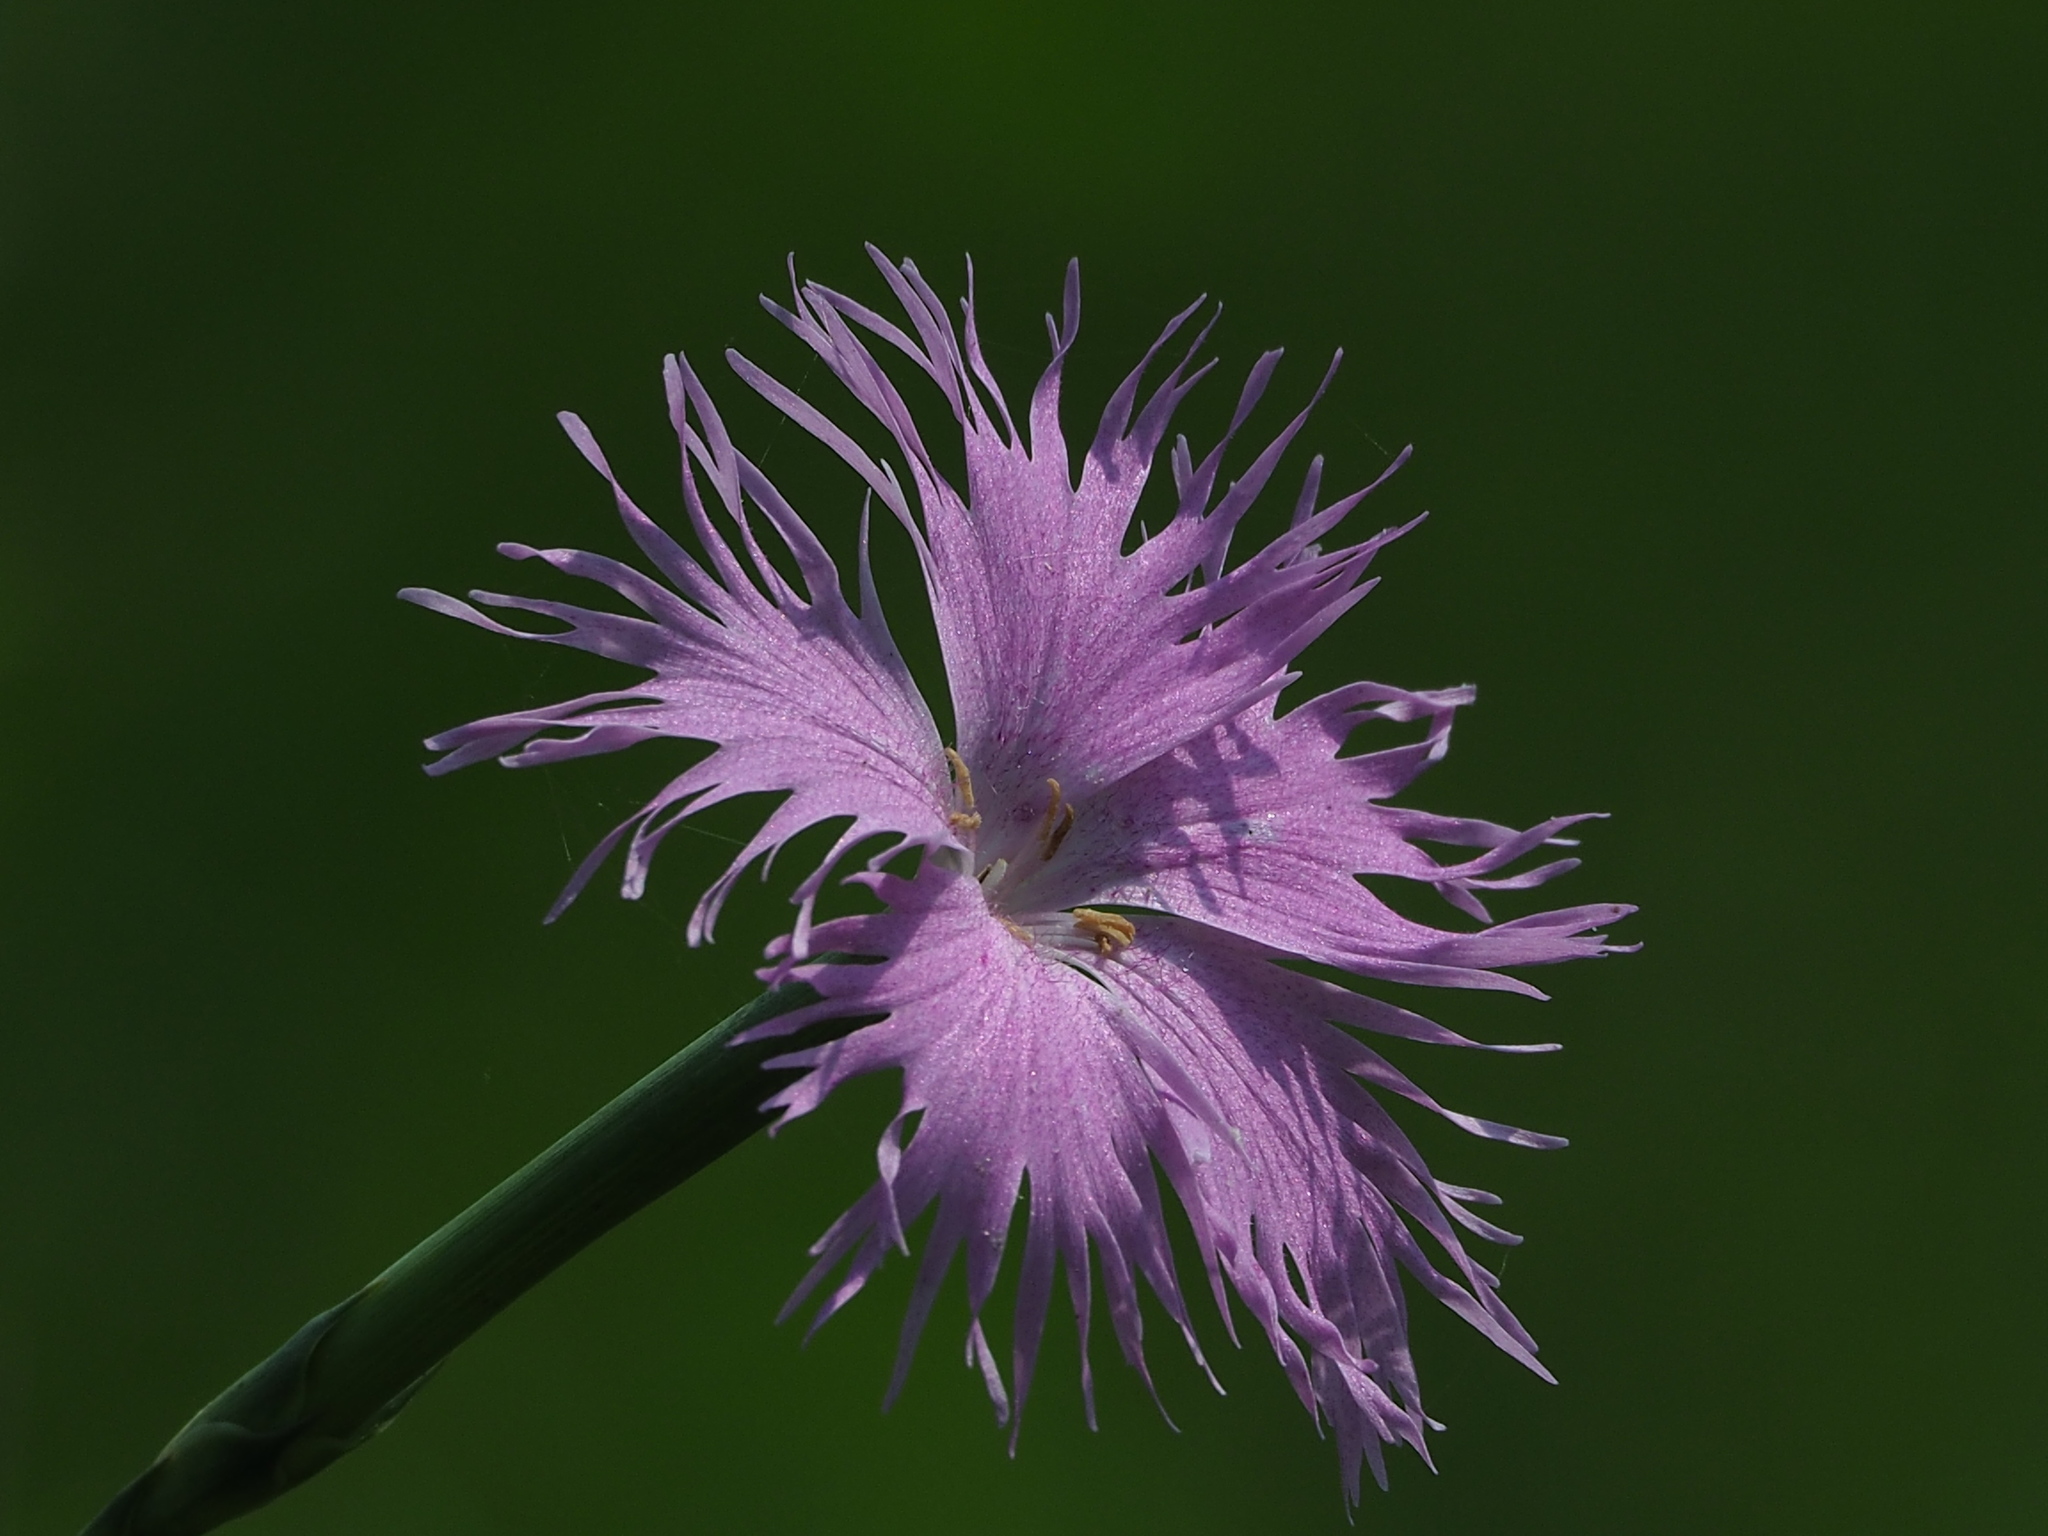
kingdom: Plantae
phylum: Tracheophyta
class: Magnoliopsida
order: Caryophyllales
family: Caryophyllaceae
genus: Dianthus
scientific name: Dianthus longicalyx
